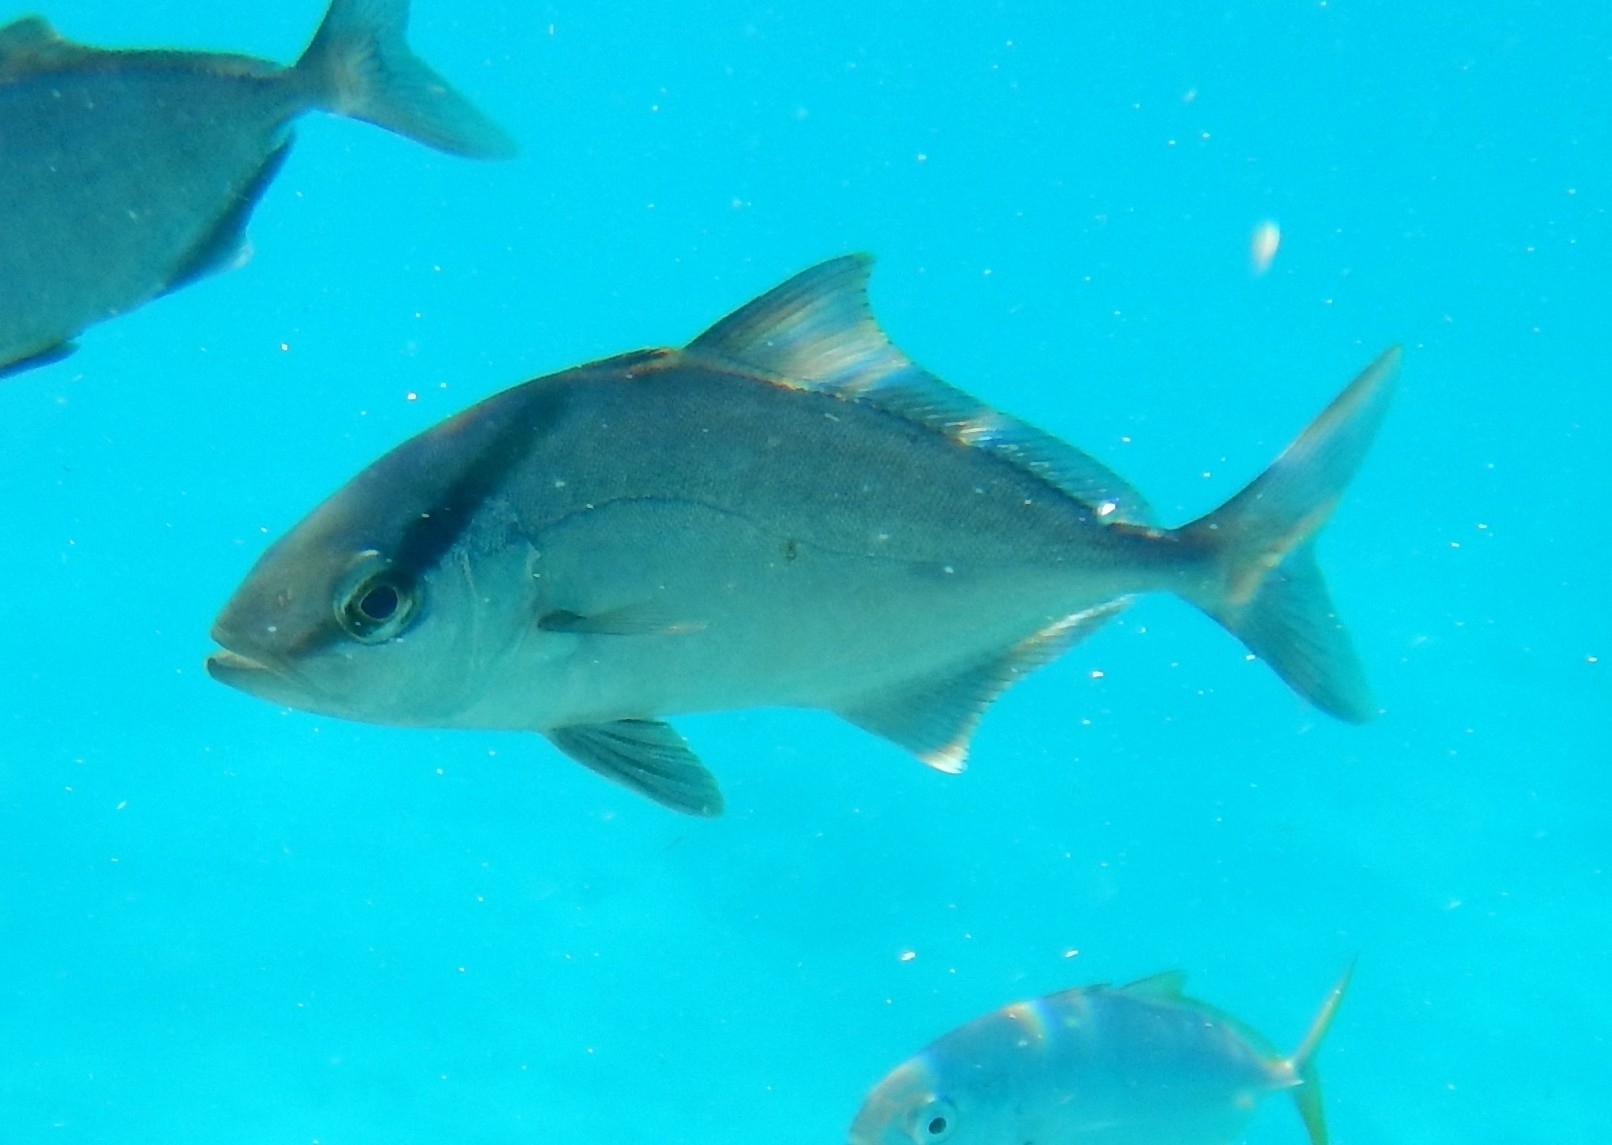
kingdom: Animalia
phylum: Chordata
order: Perciformes
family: Carangidae
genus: Seriola
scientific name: Seriola rivoliana
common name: Almaco jack
